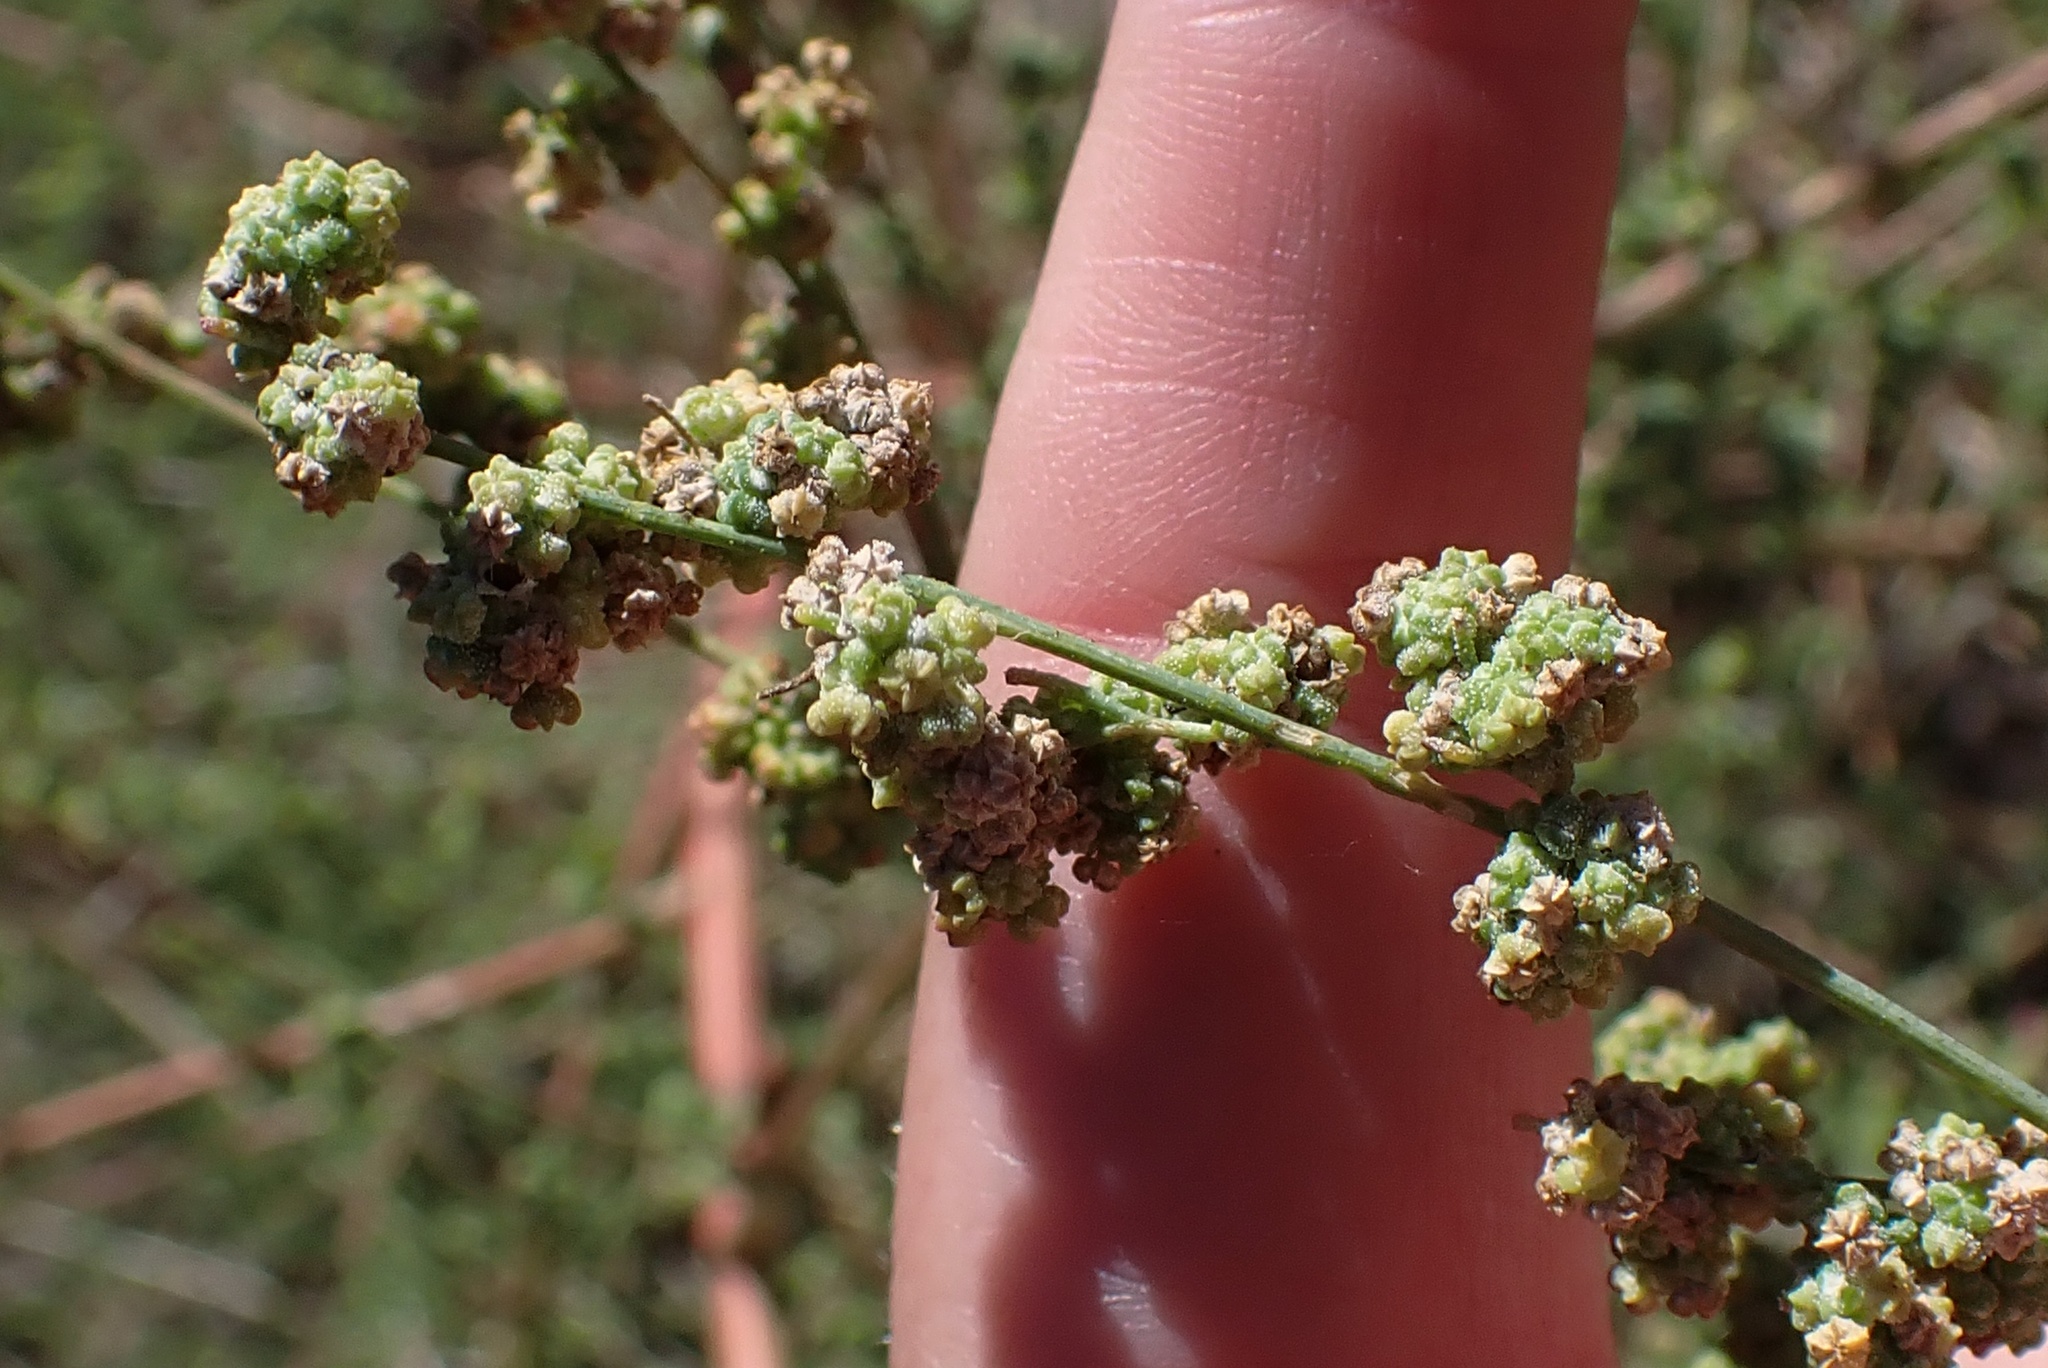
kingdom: Plantae
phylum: Tracheophyta
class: Magnoliopsida
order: Caryophyllales
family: Amaranthaceae
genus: Chenopodium
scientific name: Chenopodium berlandieri
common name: Pit-seed goosefoot
